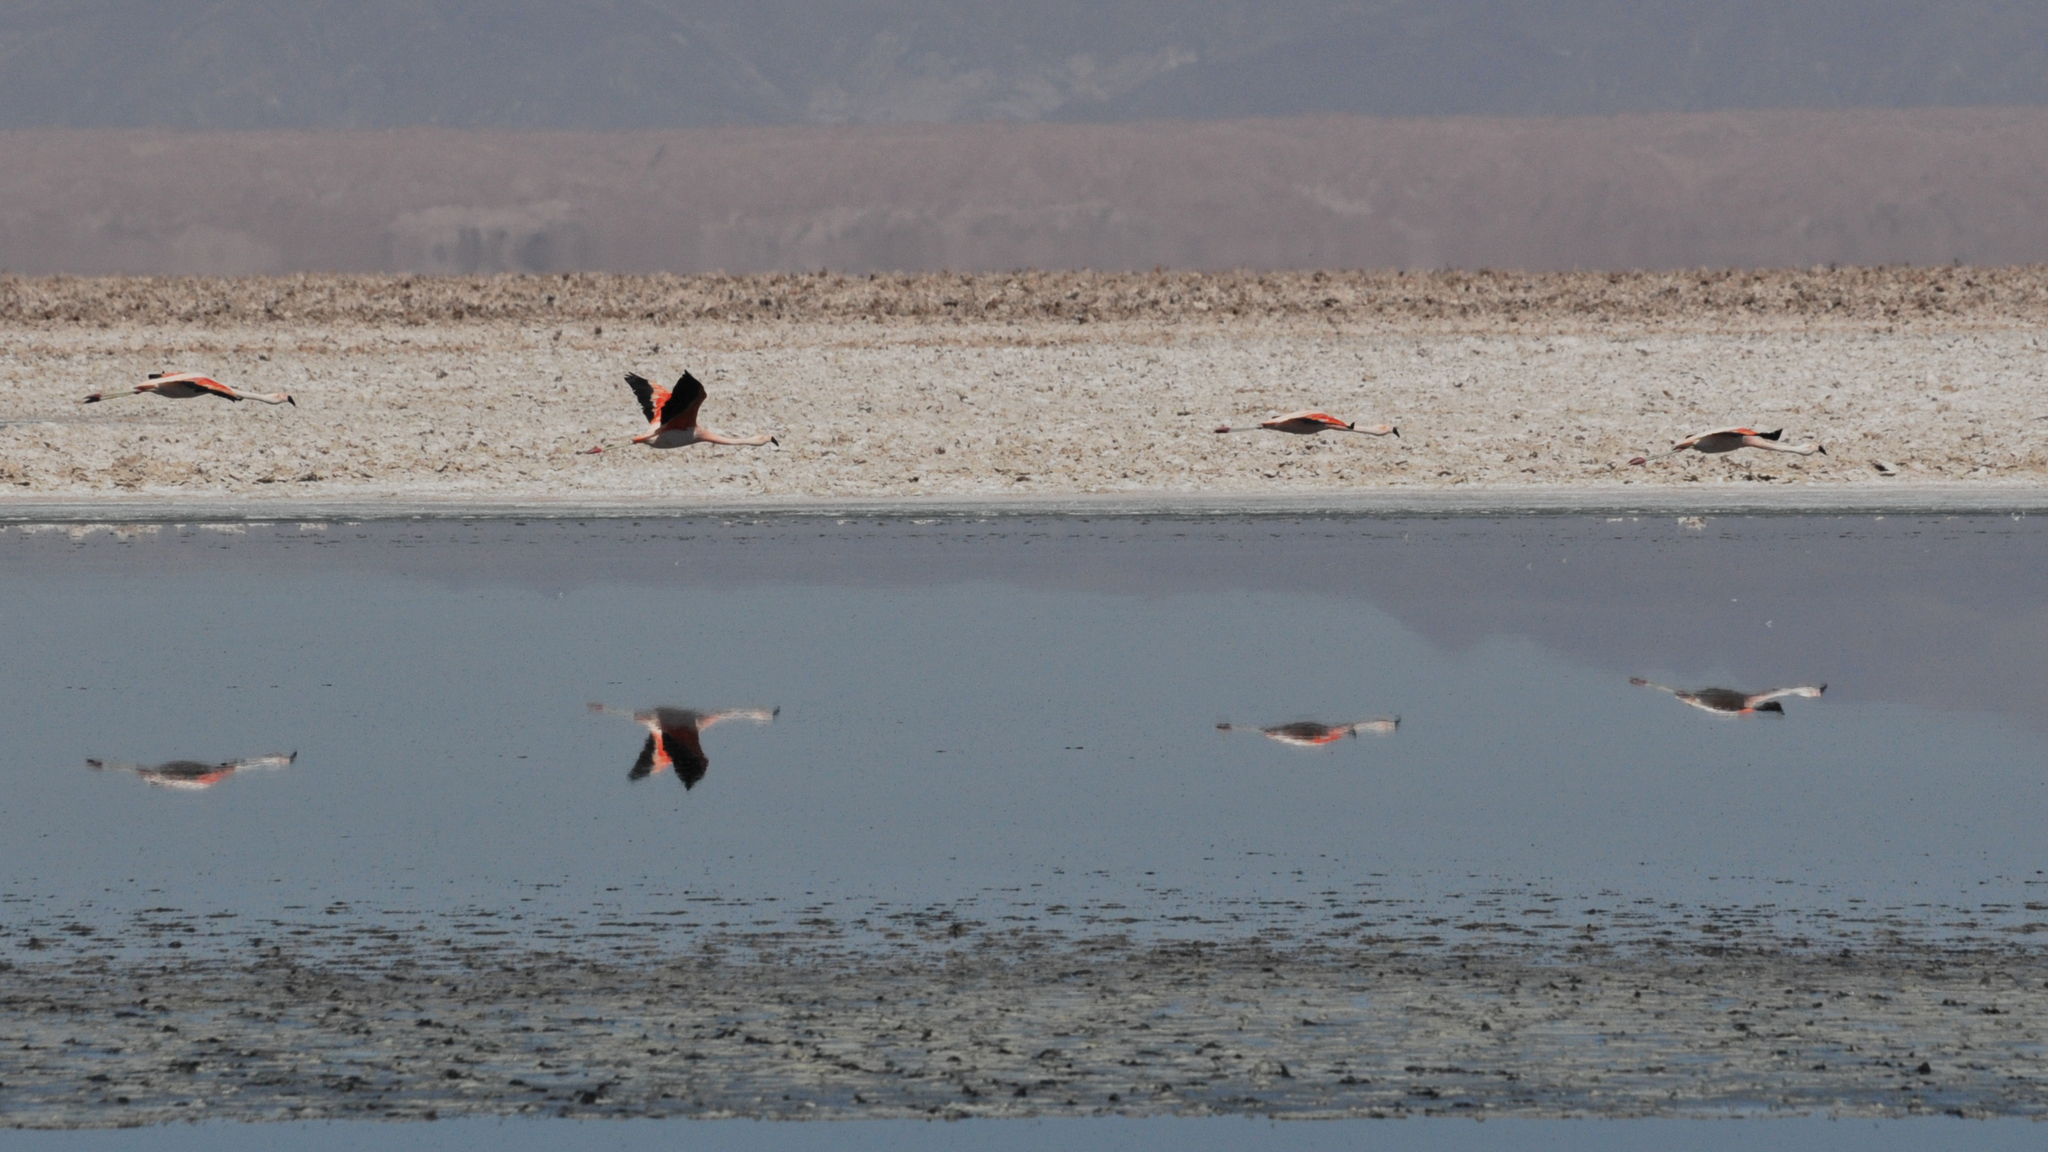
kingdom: Animalia
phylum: Chordata
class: Aves
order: Phoenicopteriformes
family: Phoenicopteridae
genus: Phoenicopterus
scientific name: Phoenicopterus chilensis
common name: Chilean flamingo
